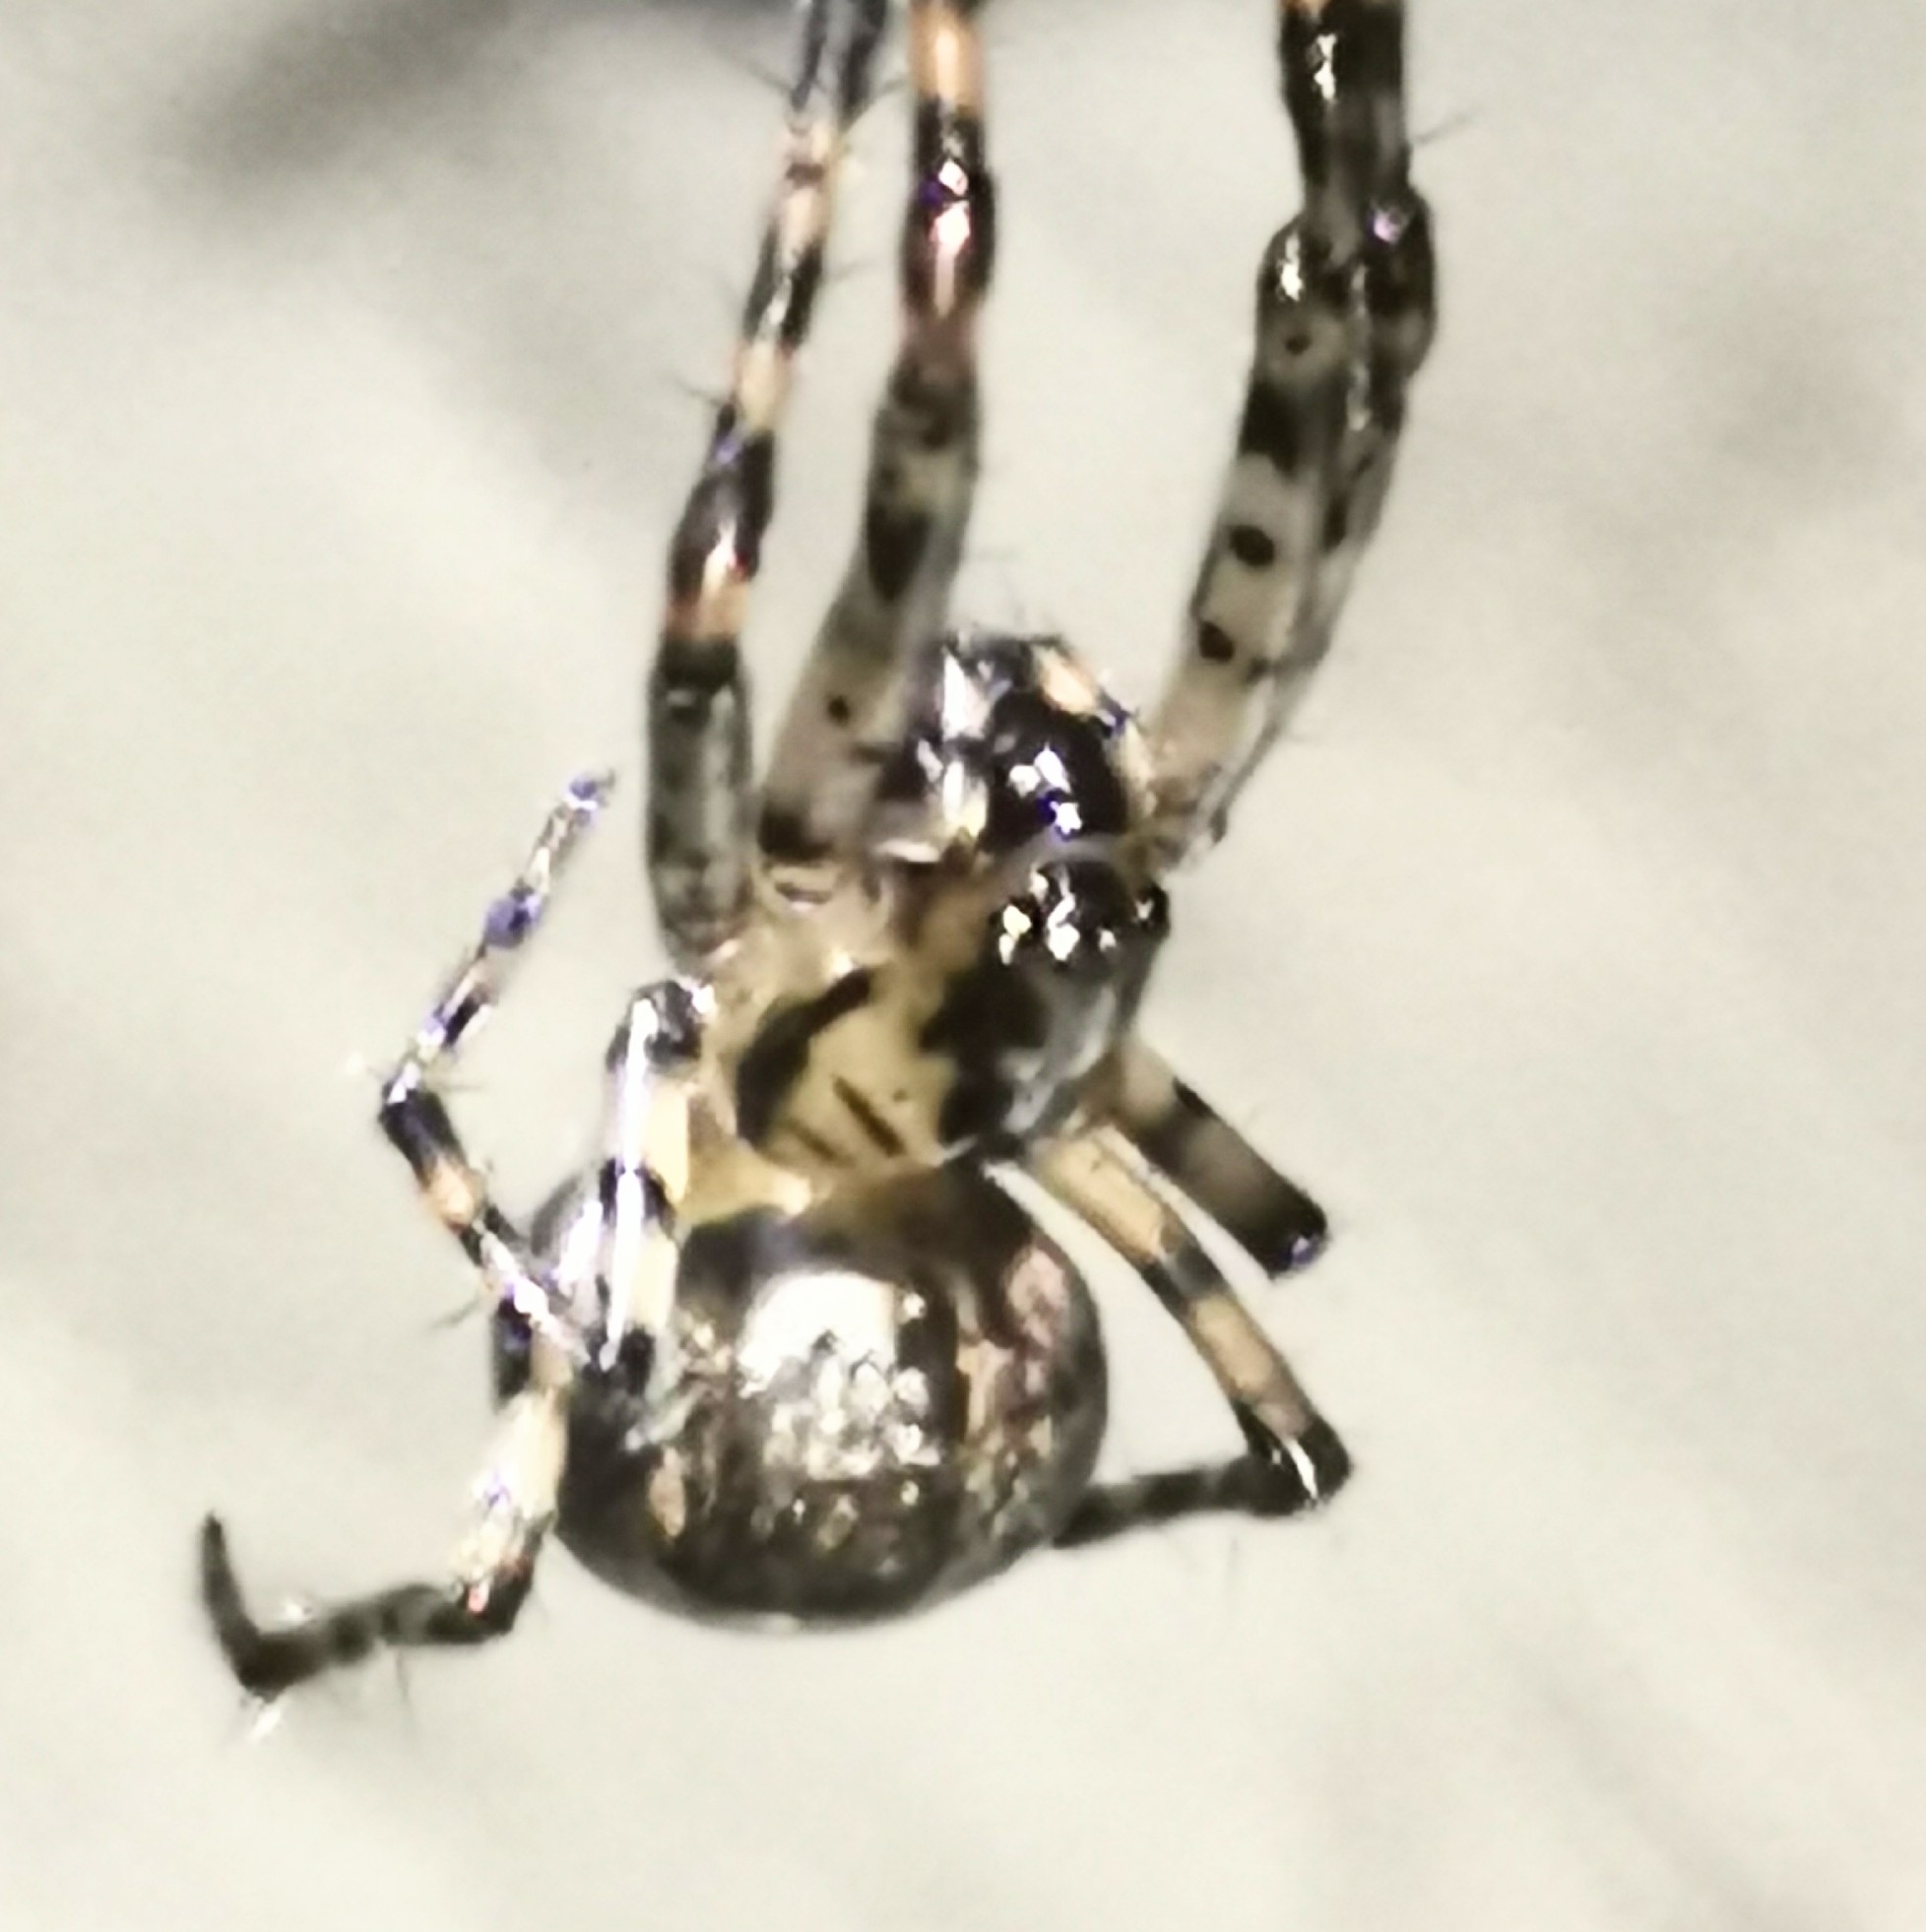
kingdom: Animalia
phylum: Arthropoda
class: Arachnida
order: Araneae
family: Tetragnathidae
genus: Metellina
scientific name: Metellina merianae
